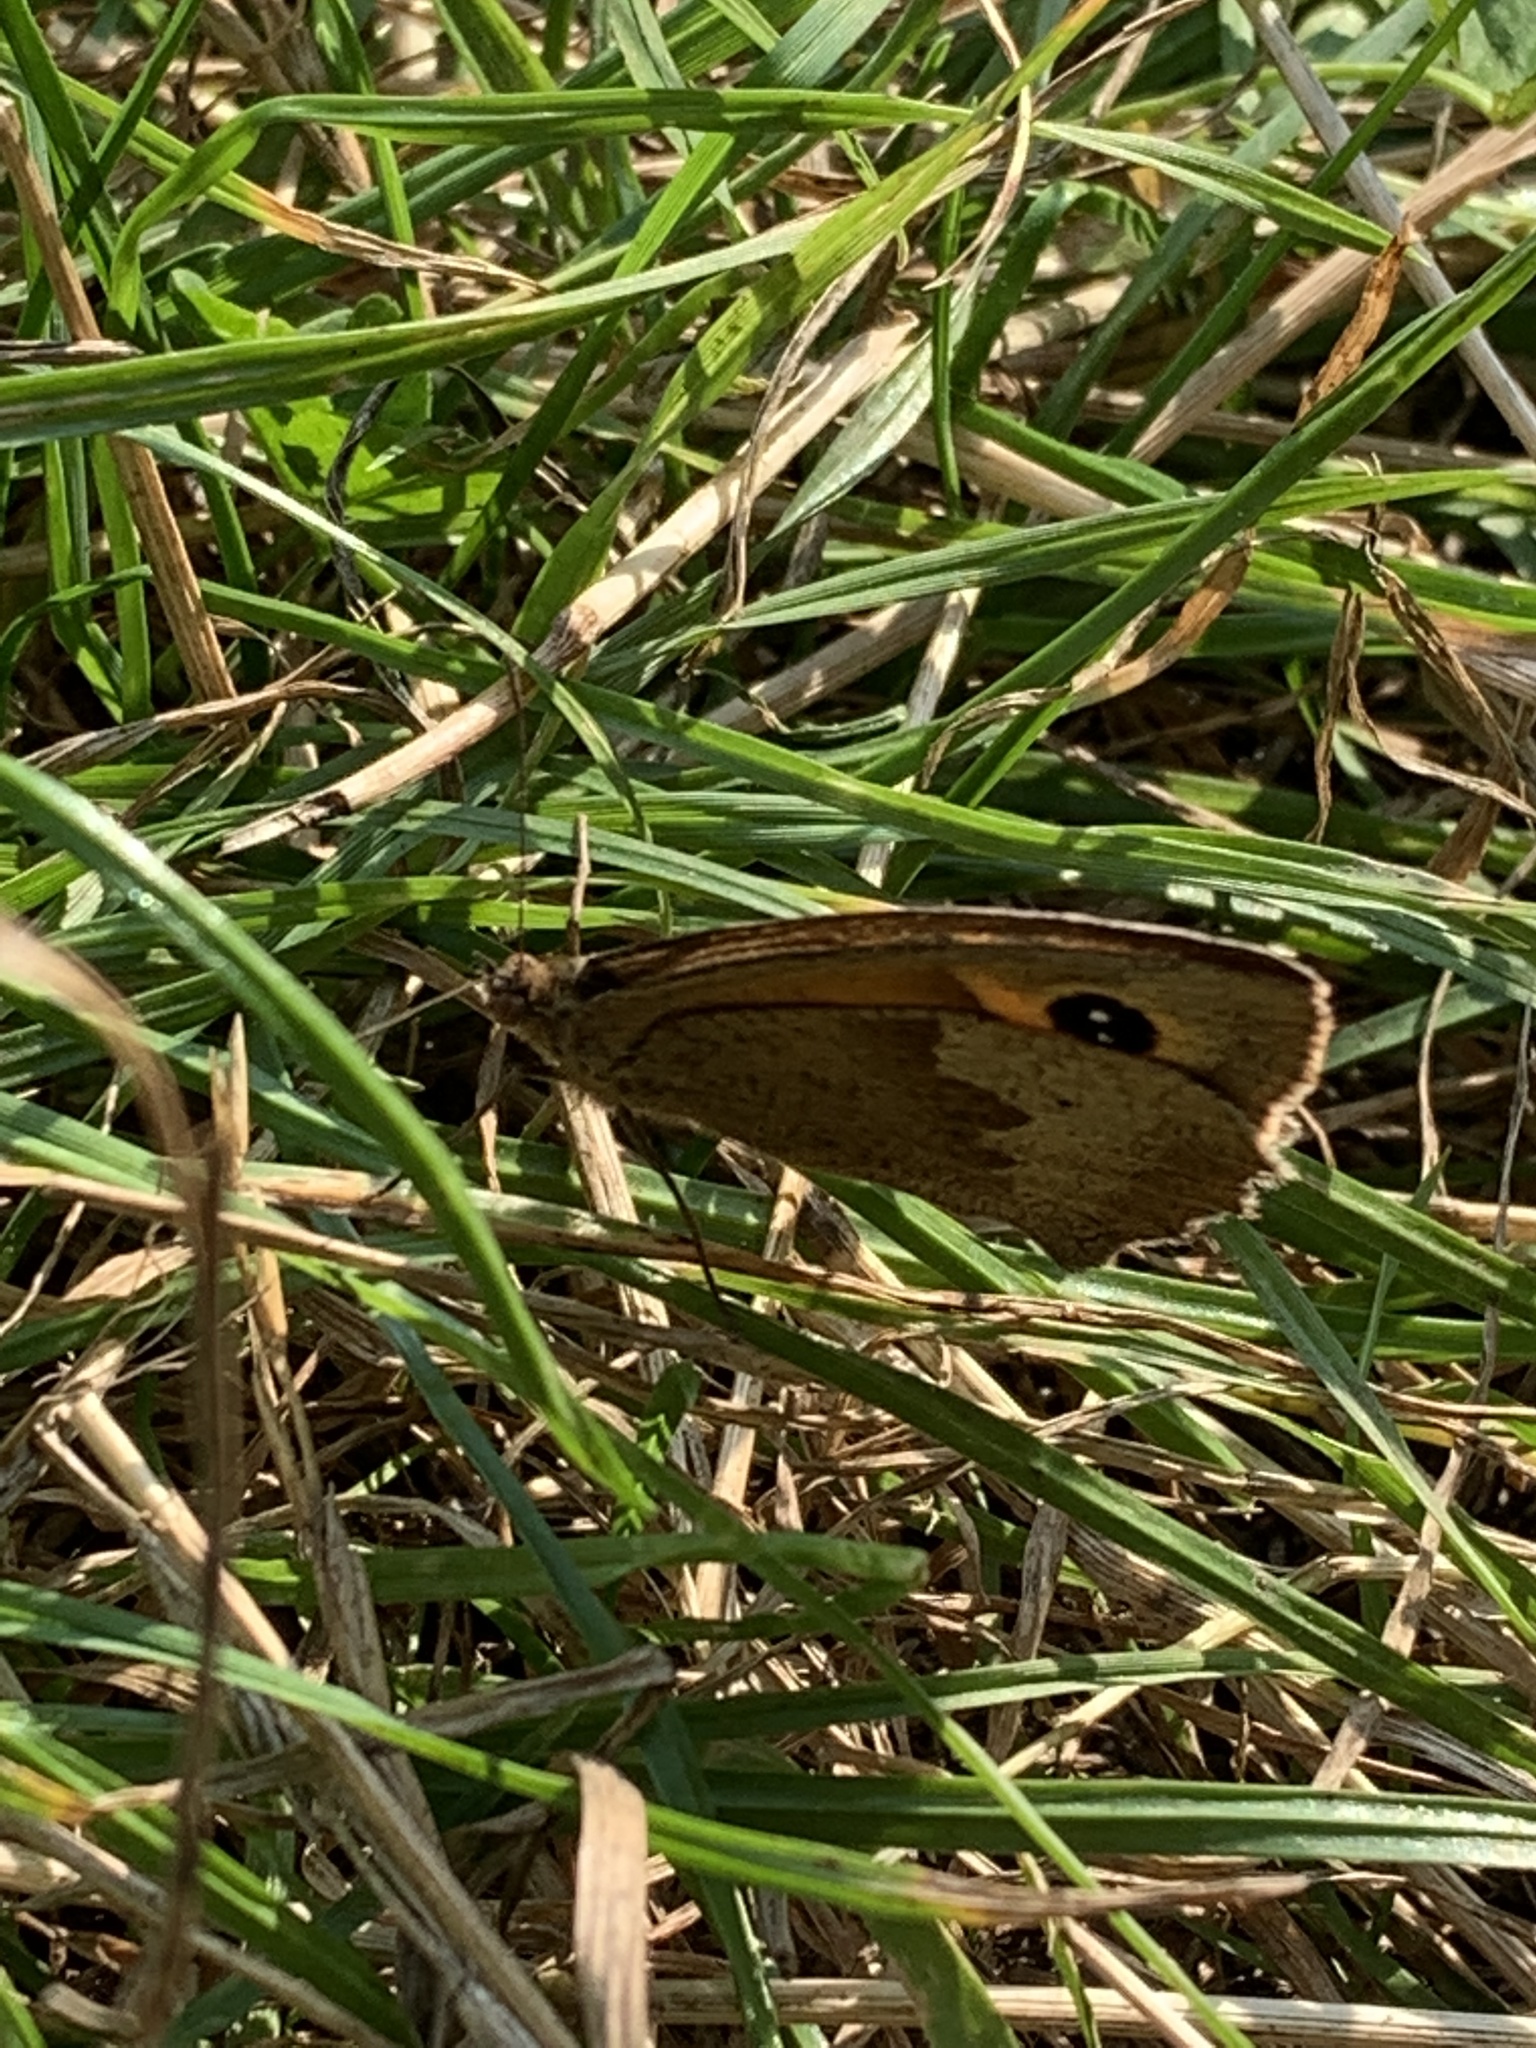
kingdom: Animalia
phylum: Arthropoda
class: Insecta
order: Lepidoptera
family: Nymphalidae
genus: Maniola
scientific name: Maniola jurtina
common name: Meadow brown
